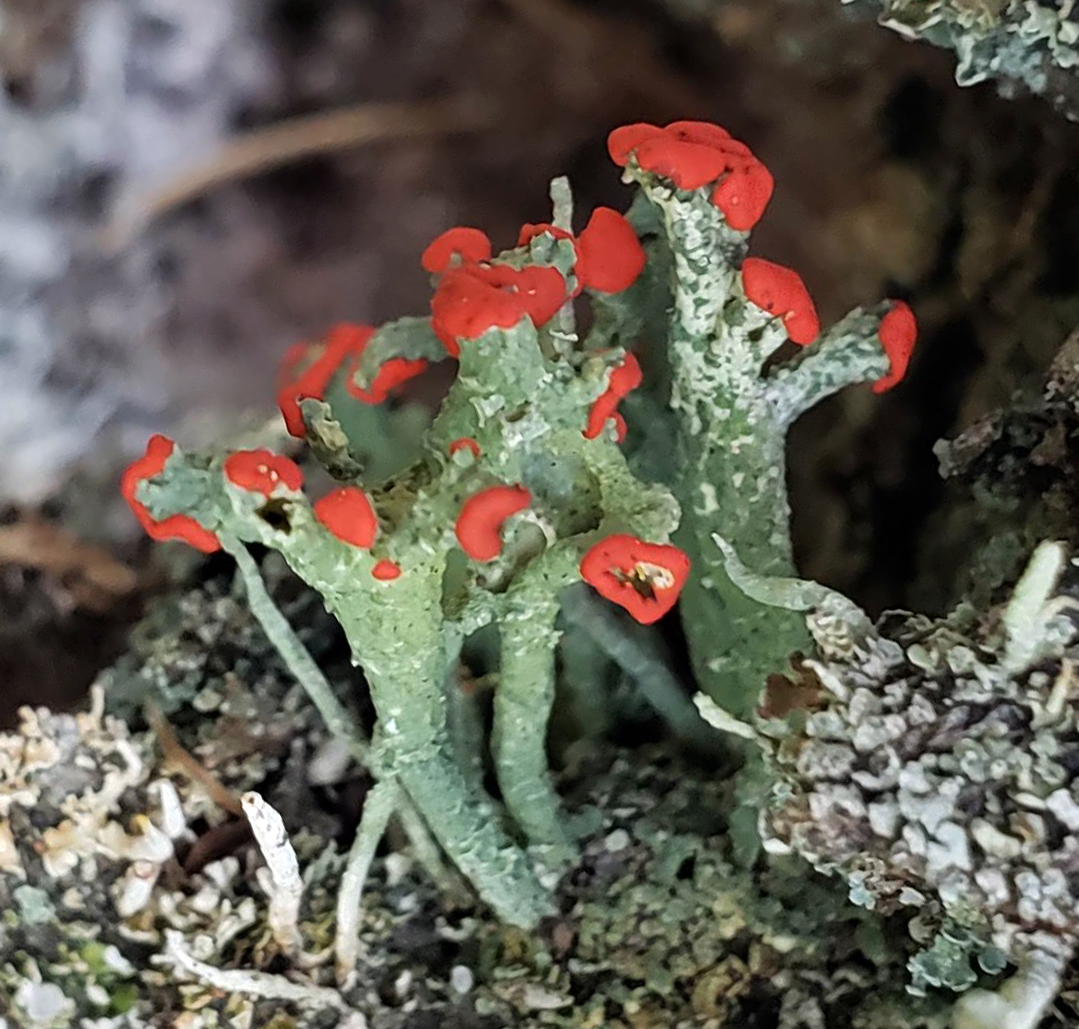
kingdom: Fungi
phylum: Ascomycota
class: Lecanoromycetes
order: Lecanorales
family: Cladoniaceae
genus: Cladonia
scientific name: Cladonia cristatella
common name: British soldier lichen
